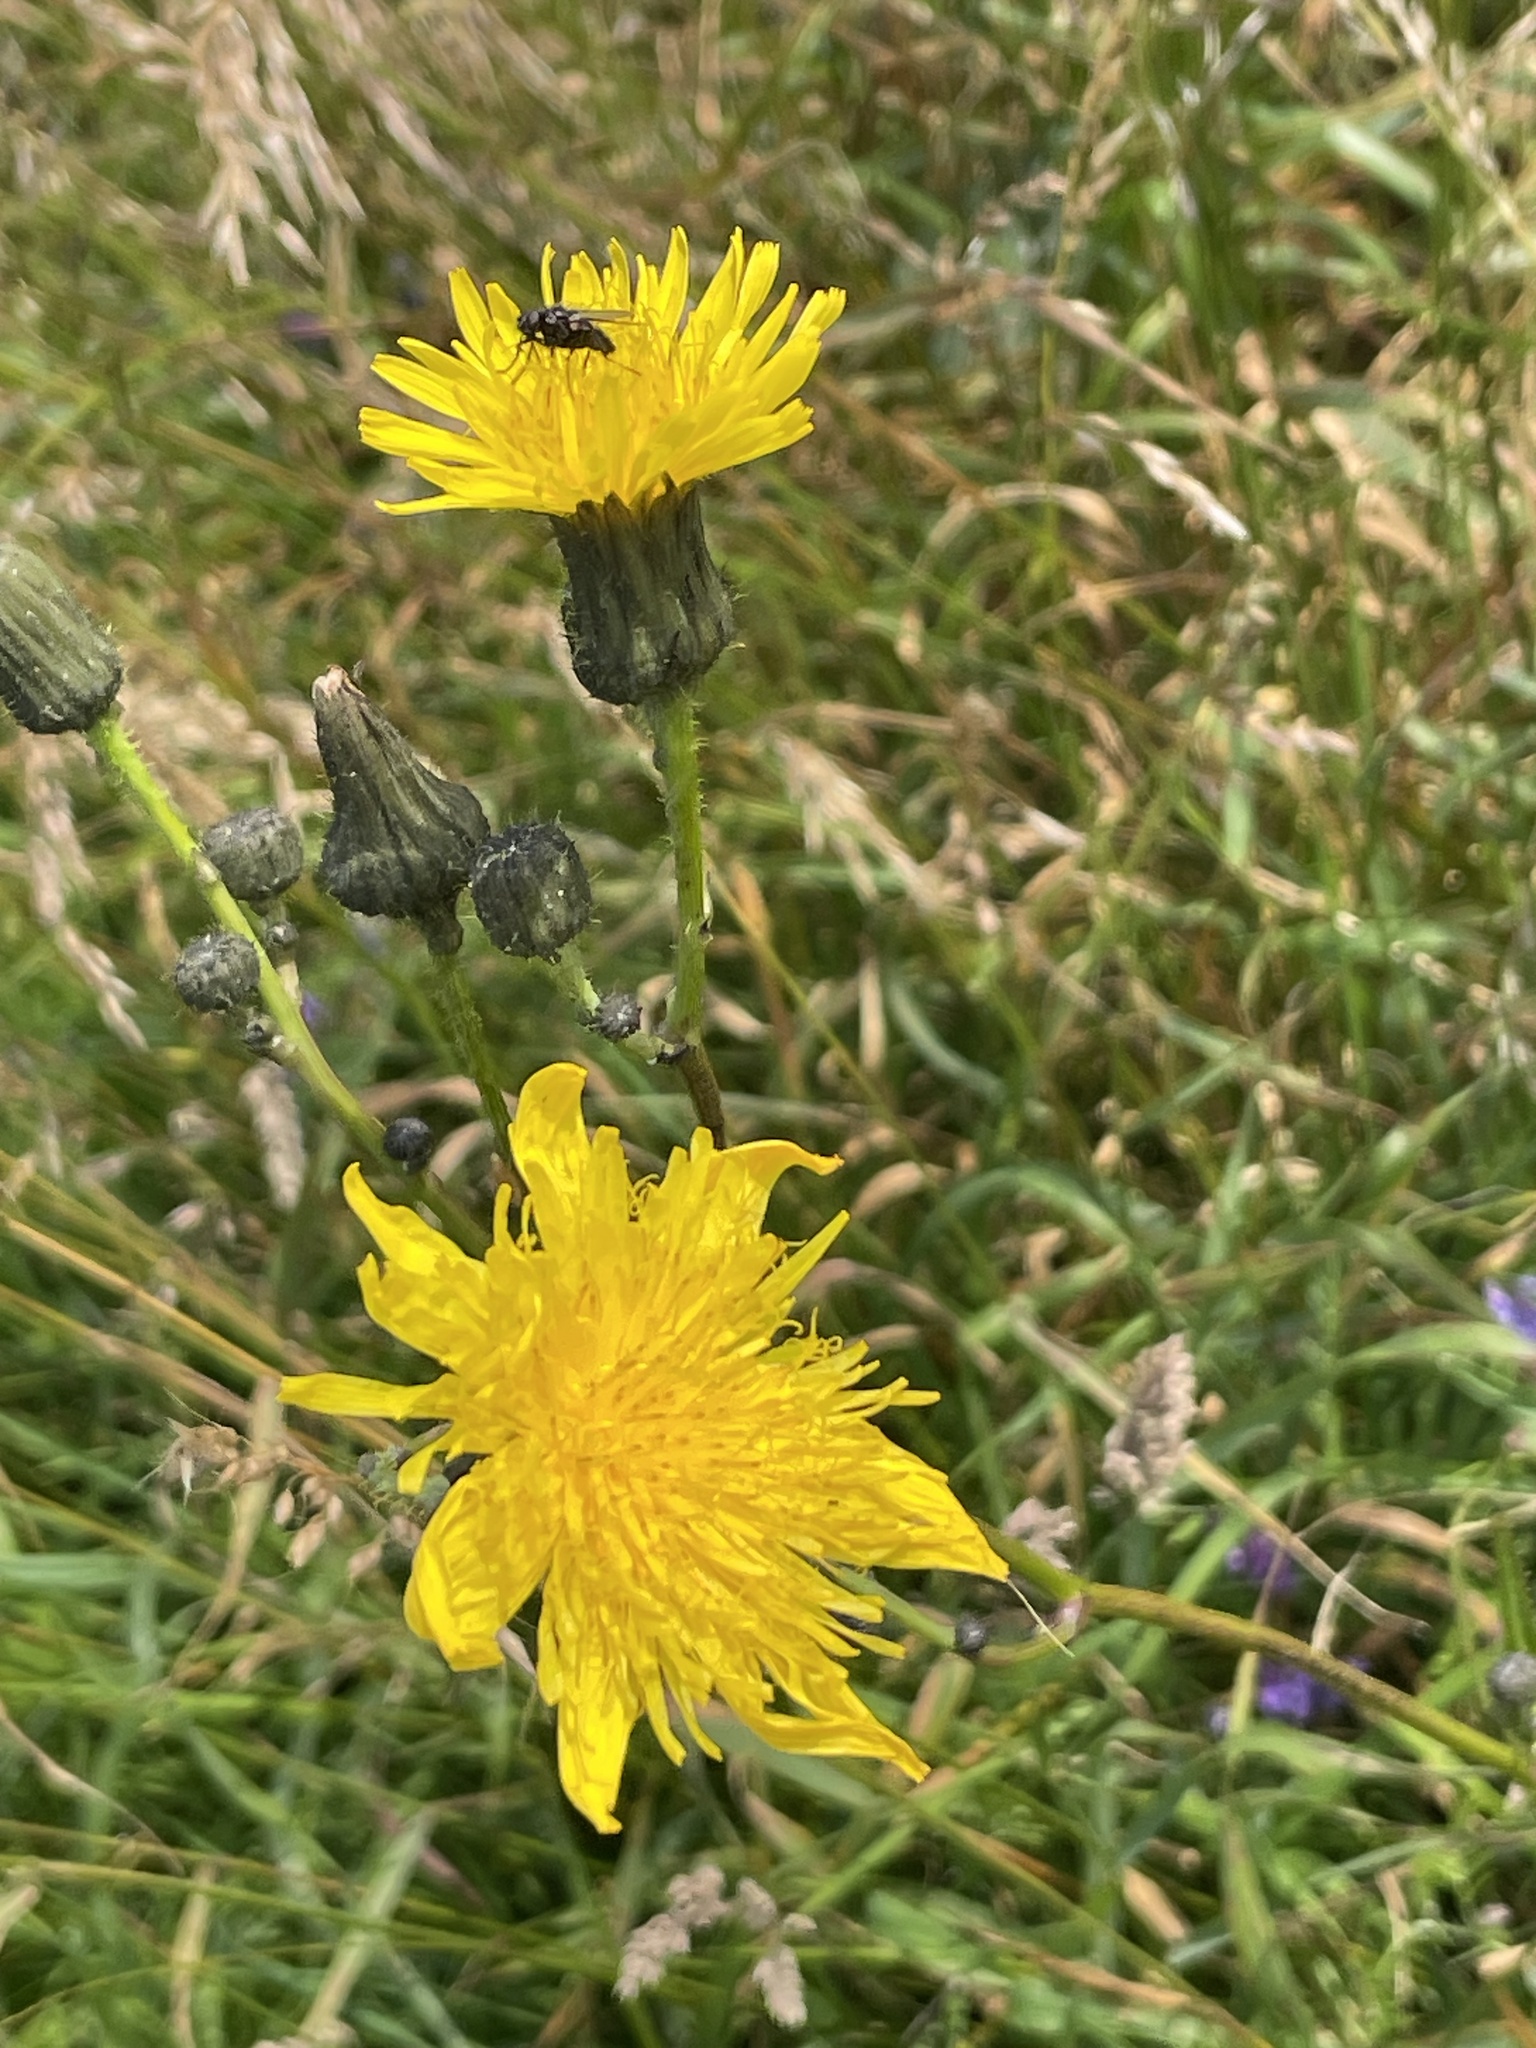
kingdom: Plantae
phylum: Tracheophyta
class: Magnoliopsida
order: Asterales
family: Asteraceae
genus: Sonchus
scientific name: Sonchus arvensis
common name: Perennial sow-thistle
